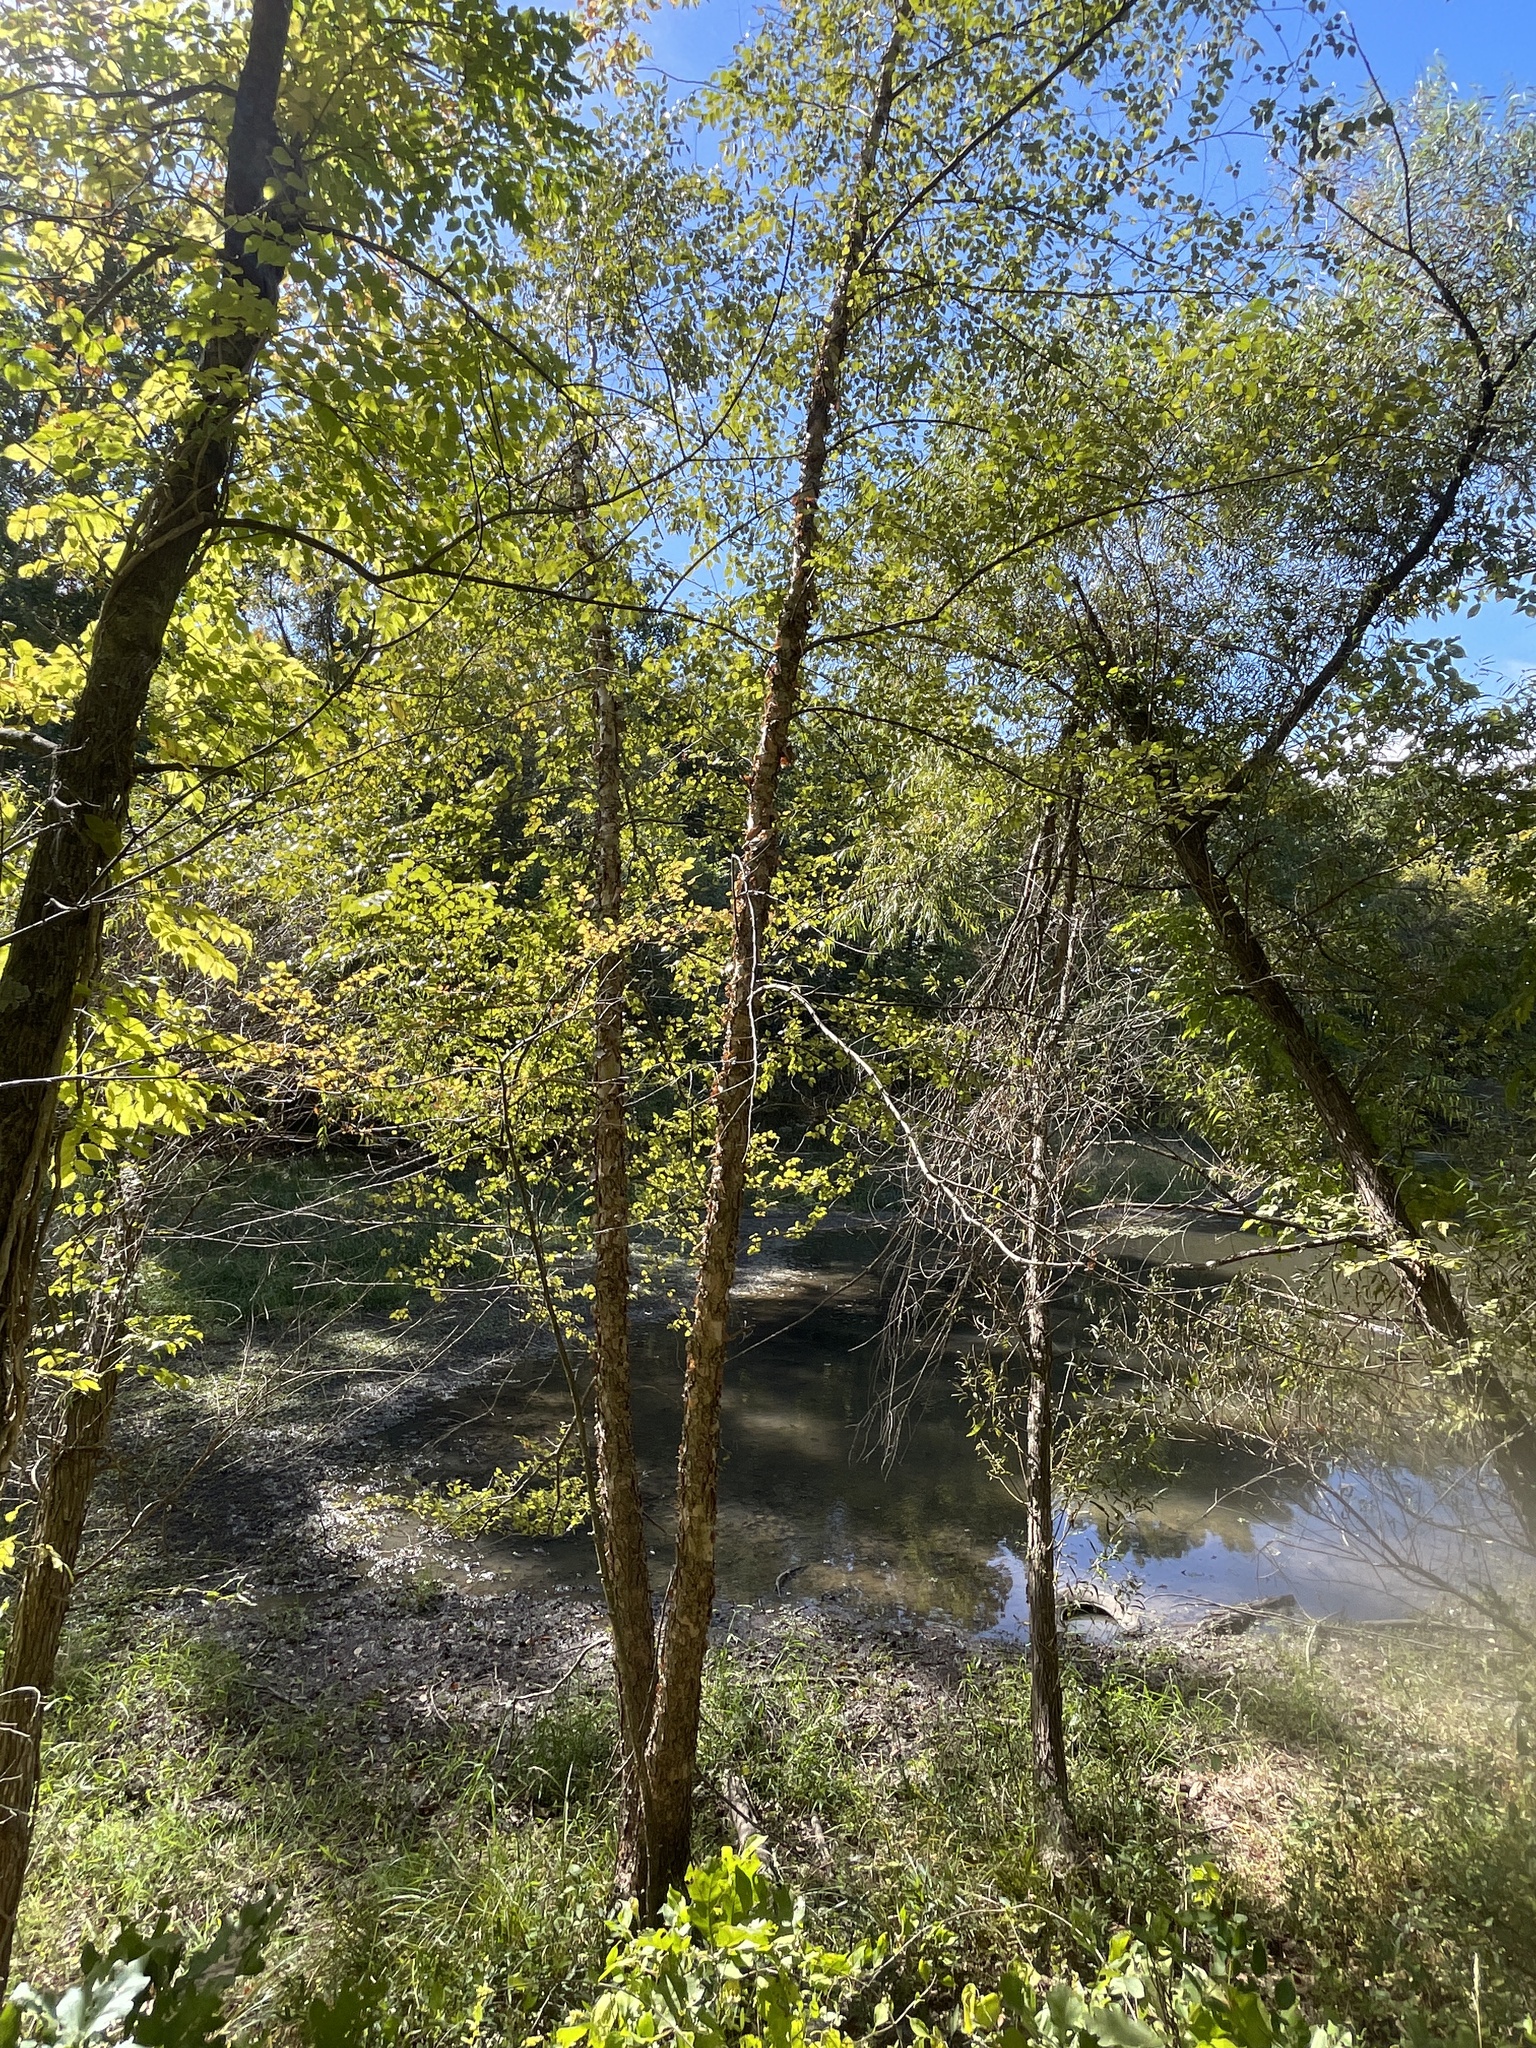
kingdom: Plantae
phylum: Tracheophyta
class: Magnoliopsida
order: Fagales
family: Betulaceae
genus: Betula
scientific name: Betula nigra
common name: Black birch
